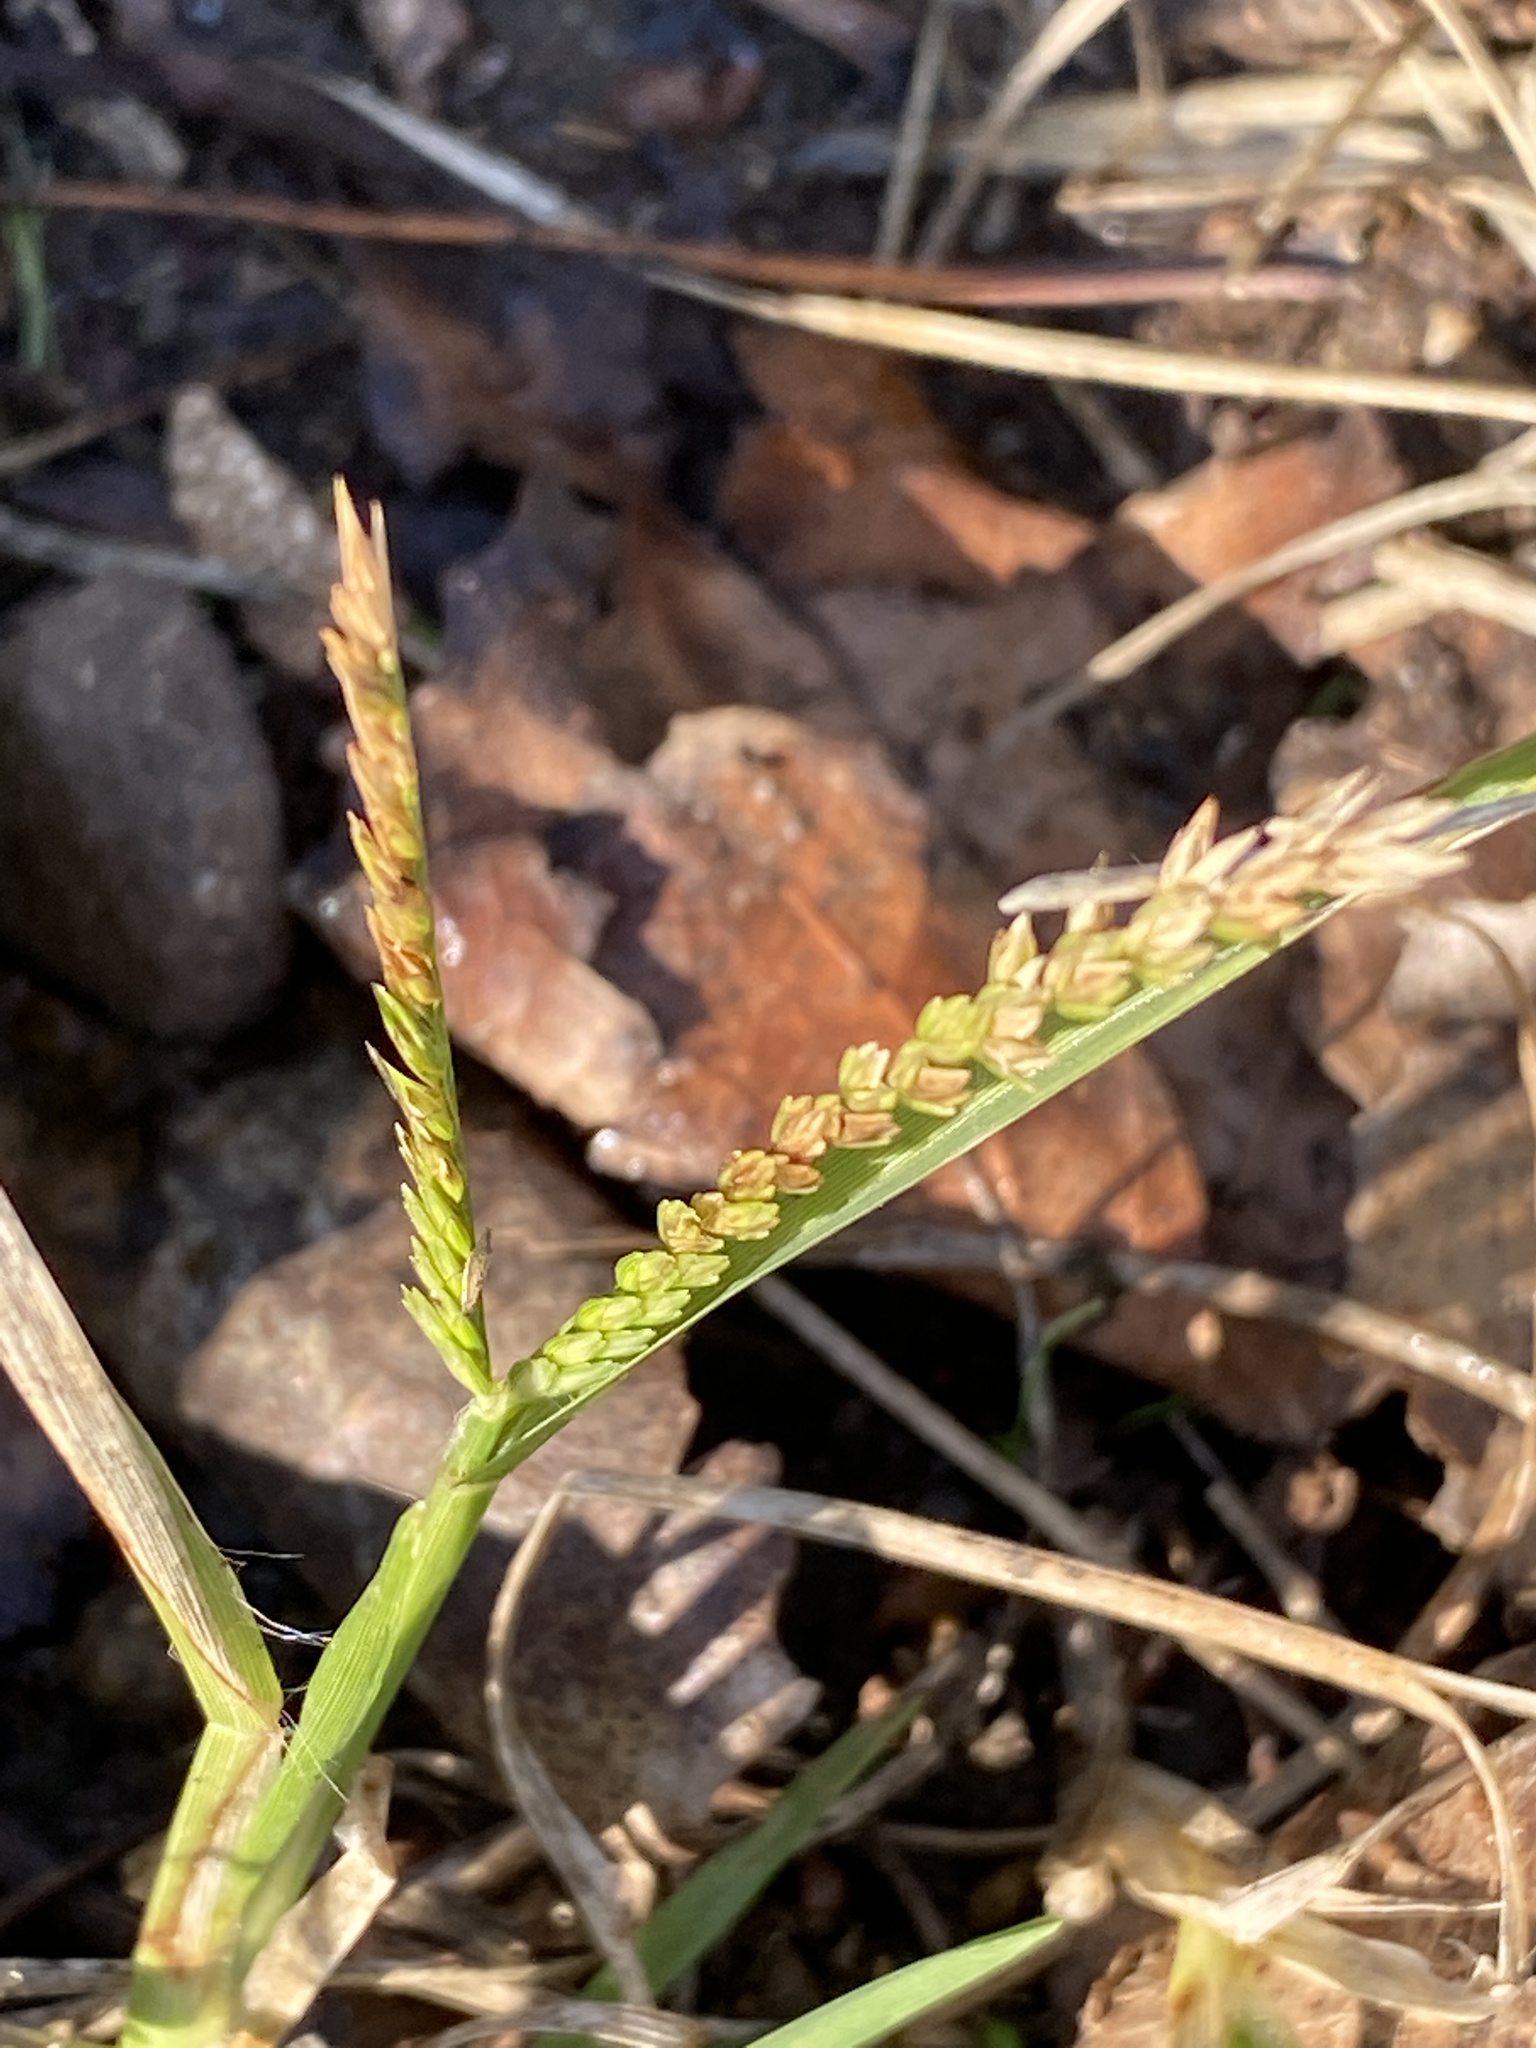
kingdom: Plantae
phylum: Tracheophyta
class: Liliopsida
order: Poales
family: Poaceae
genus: Eleusine
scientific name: Eleusine indica
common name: Yard-grass
